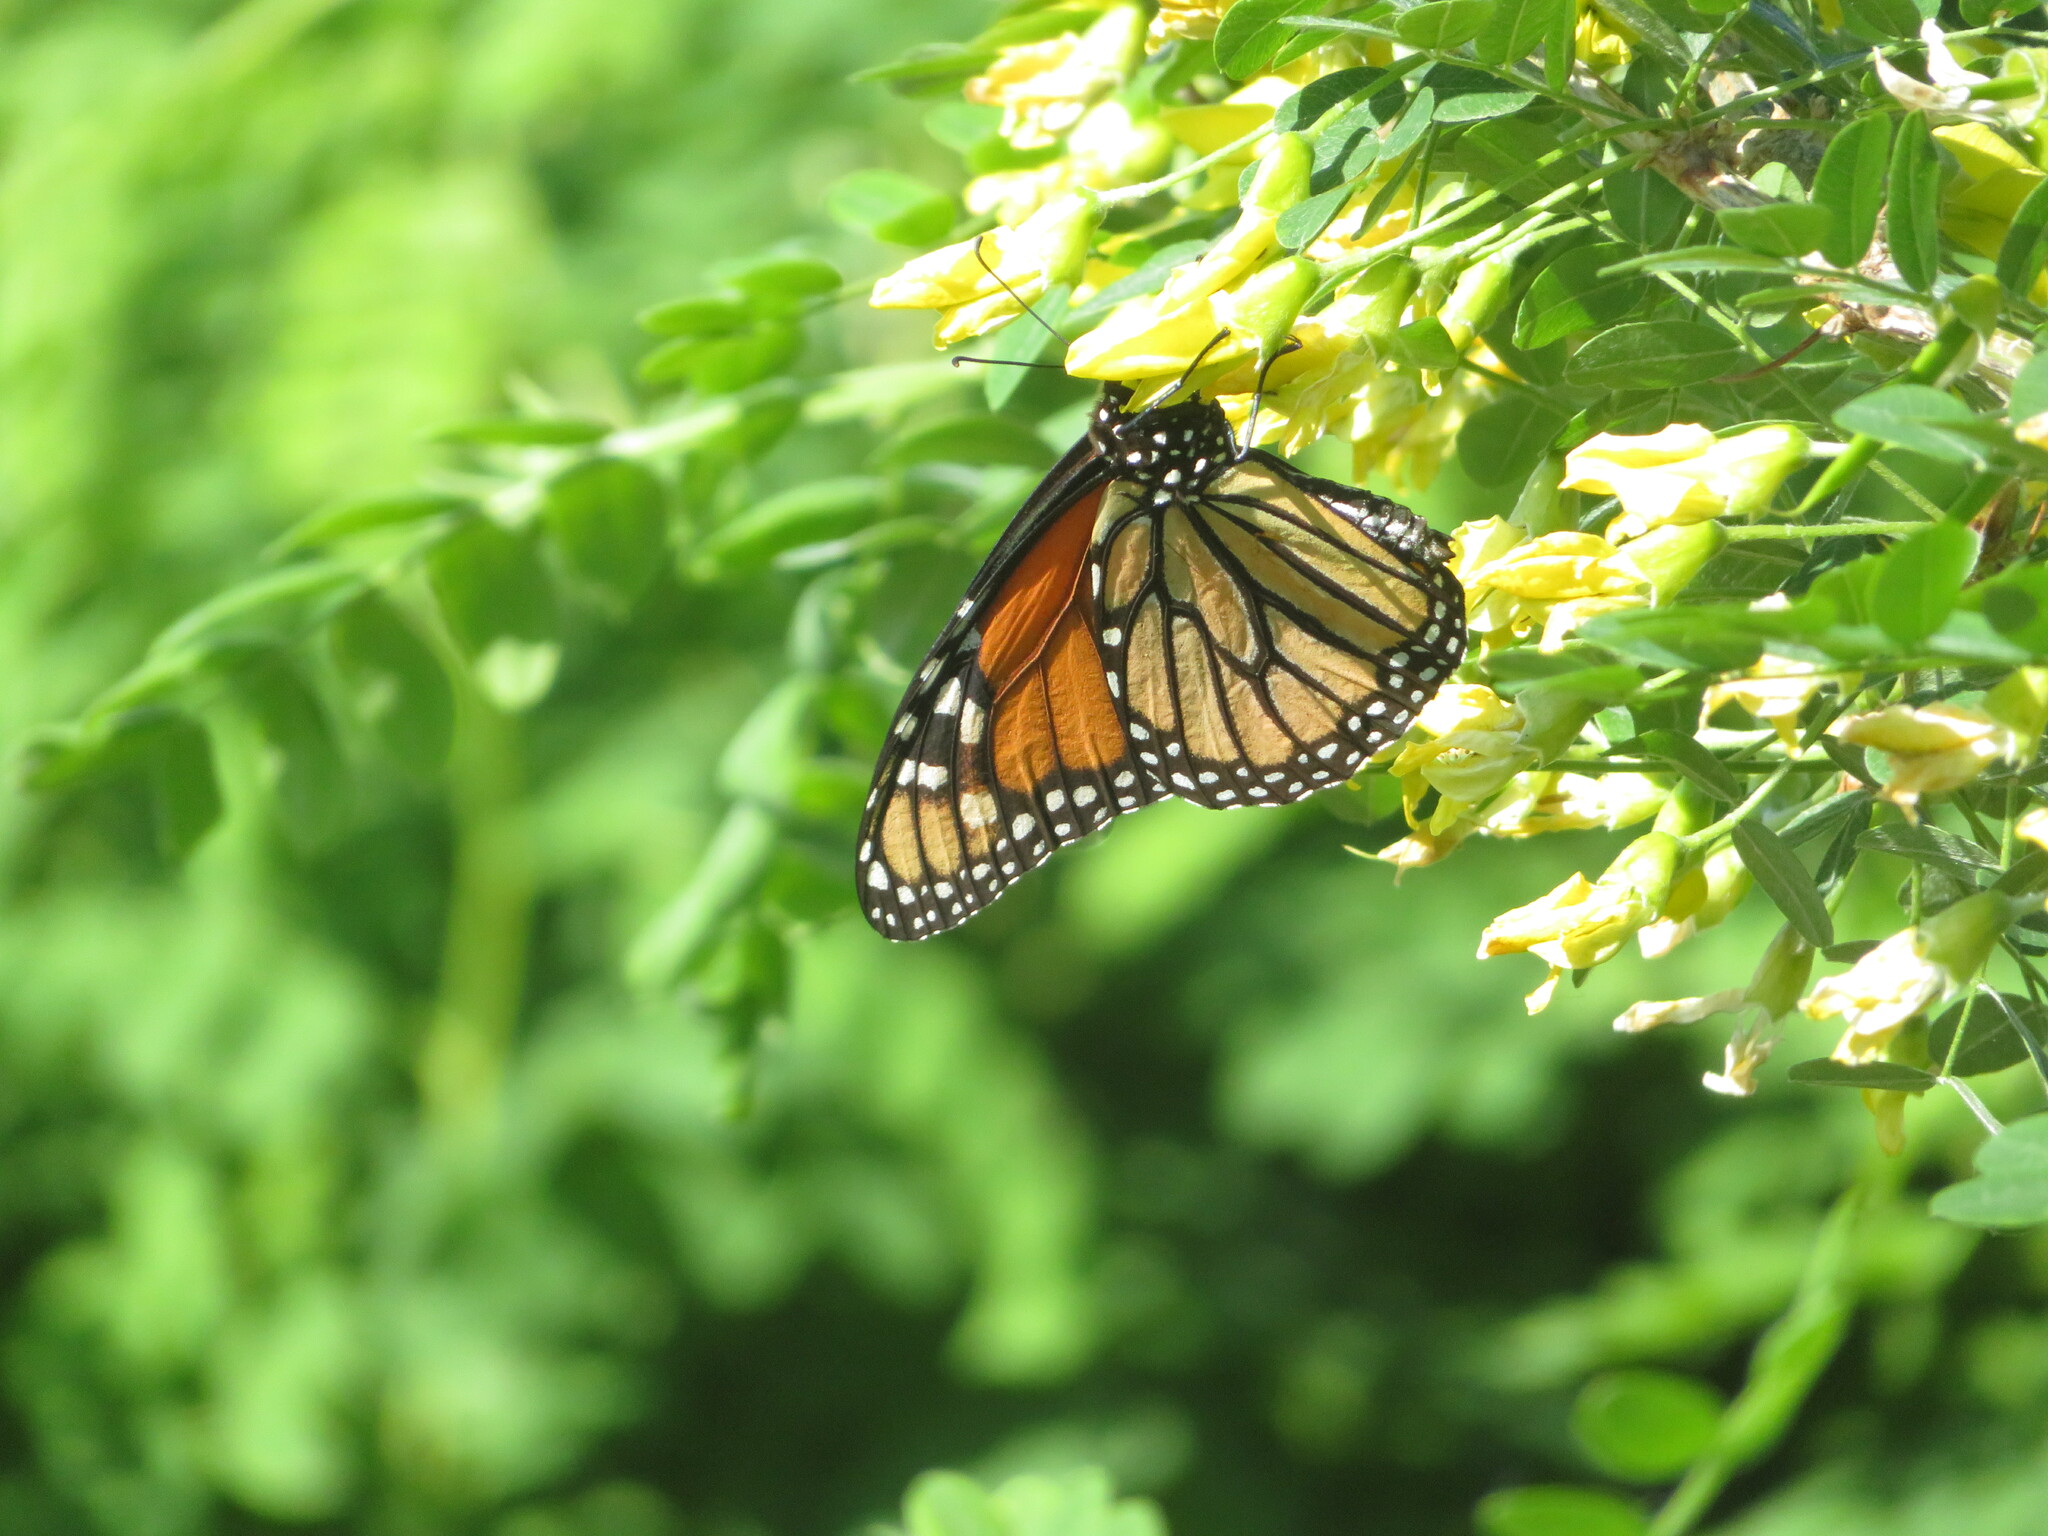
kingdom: Animalia
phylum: Arthropoda
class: Insecta
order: Lepidoptera
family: Nymphalidae
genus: Danaus
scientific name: Danaus plexippus
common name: Monarch
